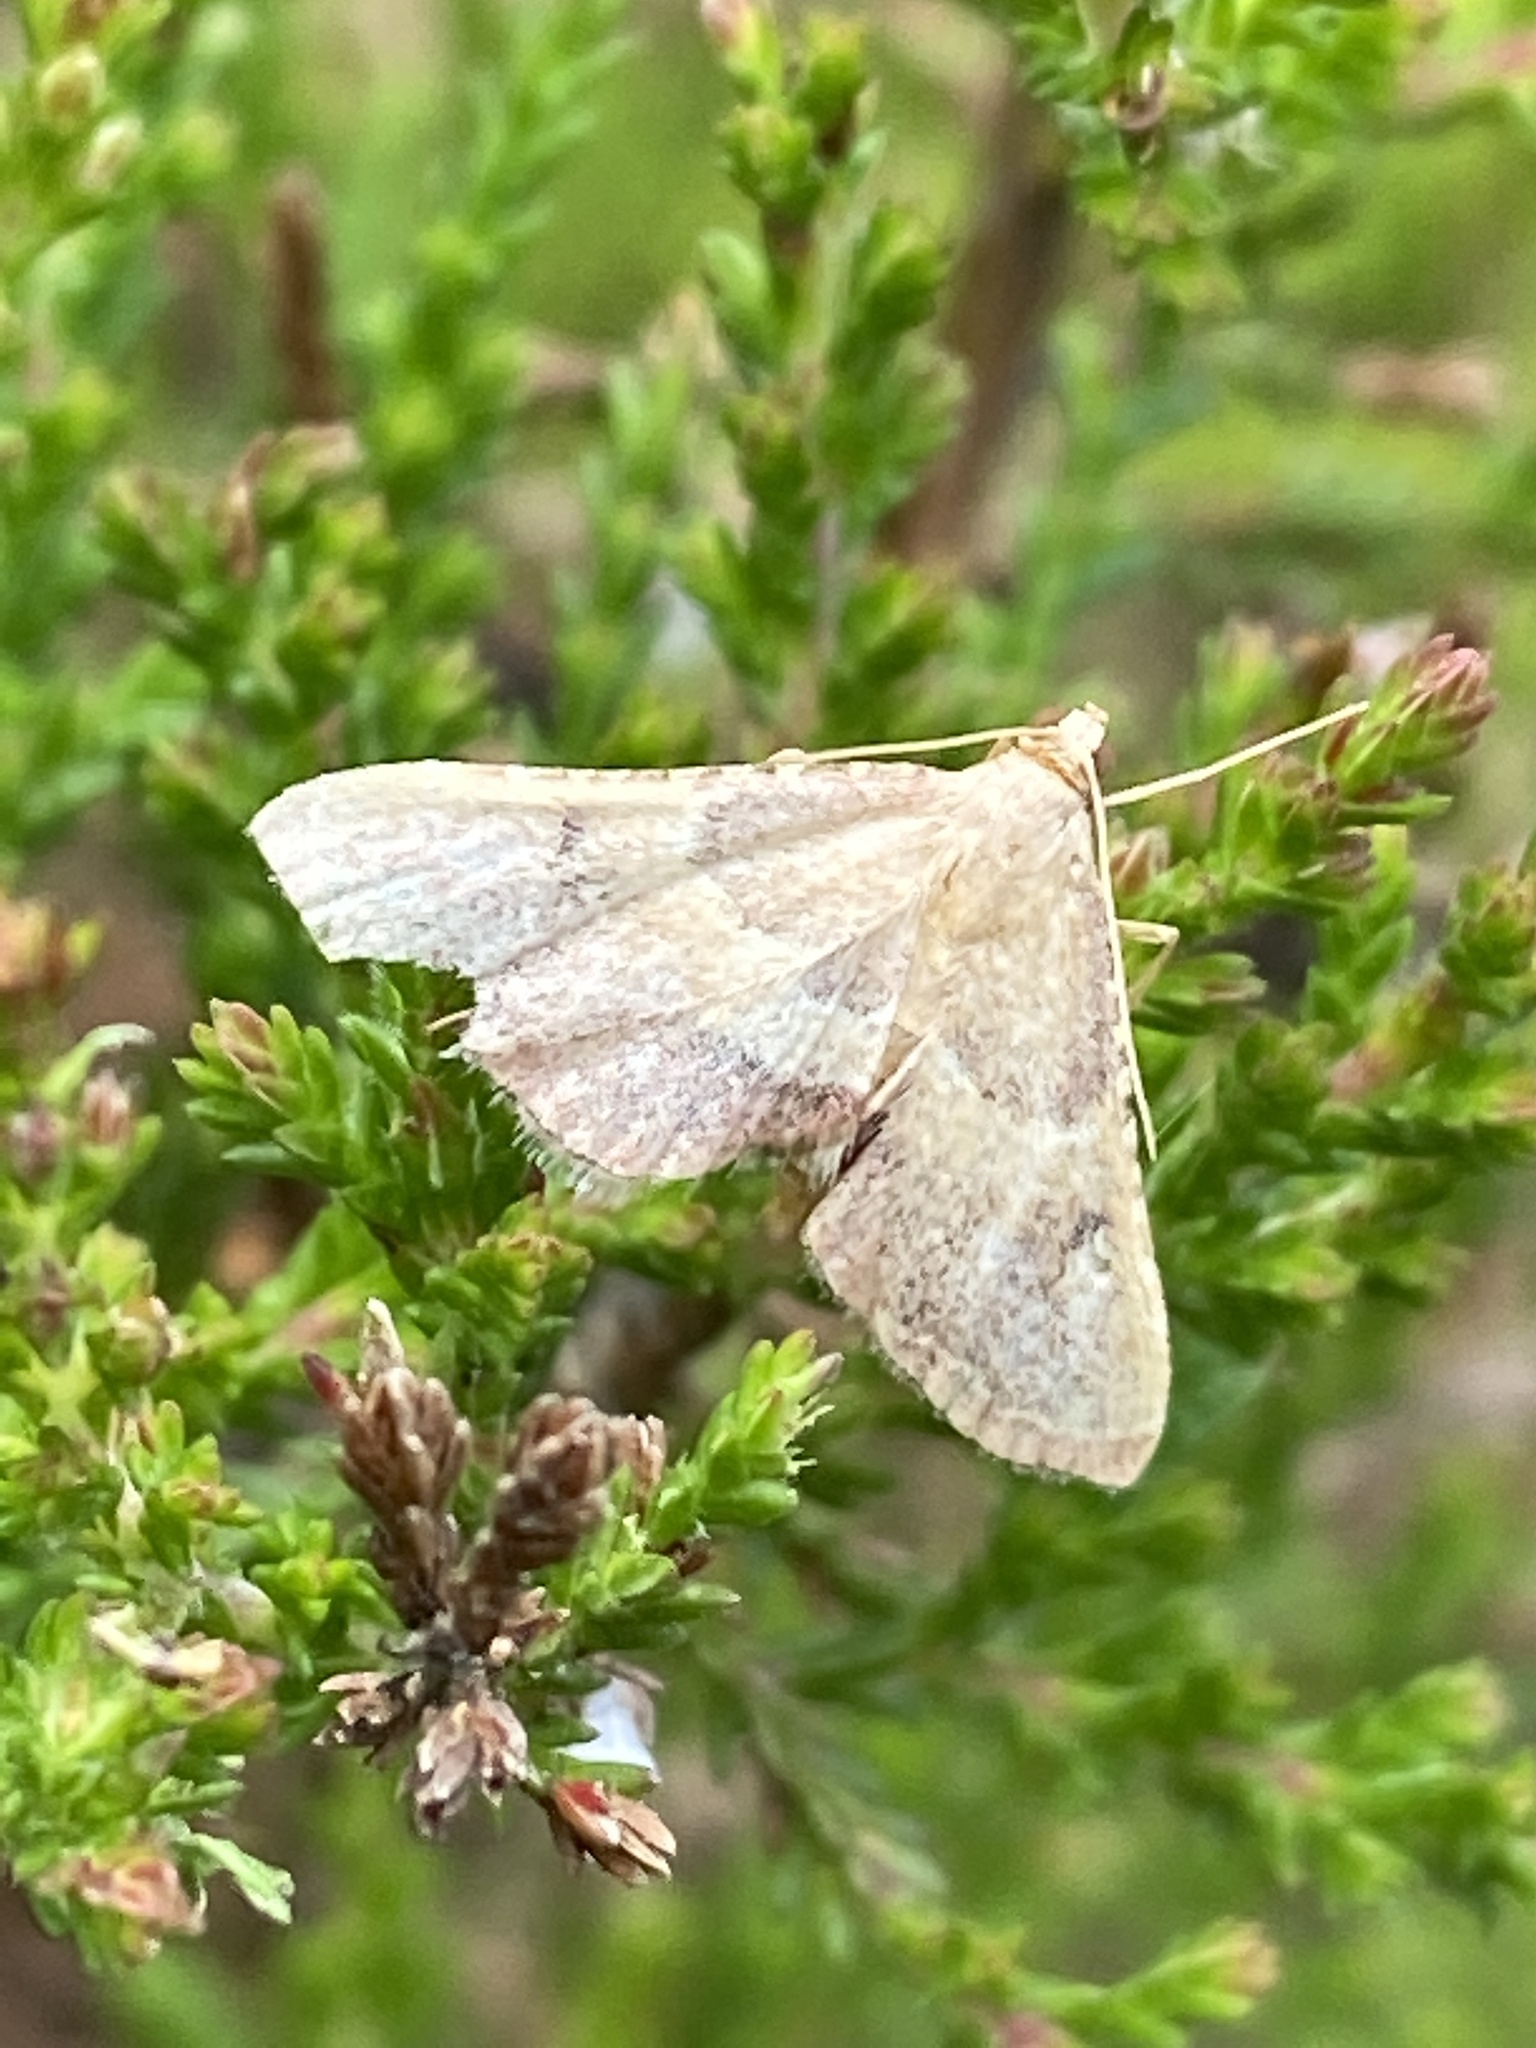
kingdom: Animalia
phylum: Arthropoda
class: Insecta
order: Lepidoptera
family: Pyralidae
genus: Endotricha
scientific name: Endotricha flammealis
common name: Rosy tabby
